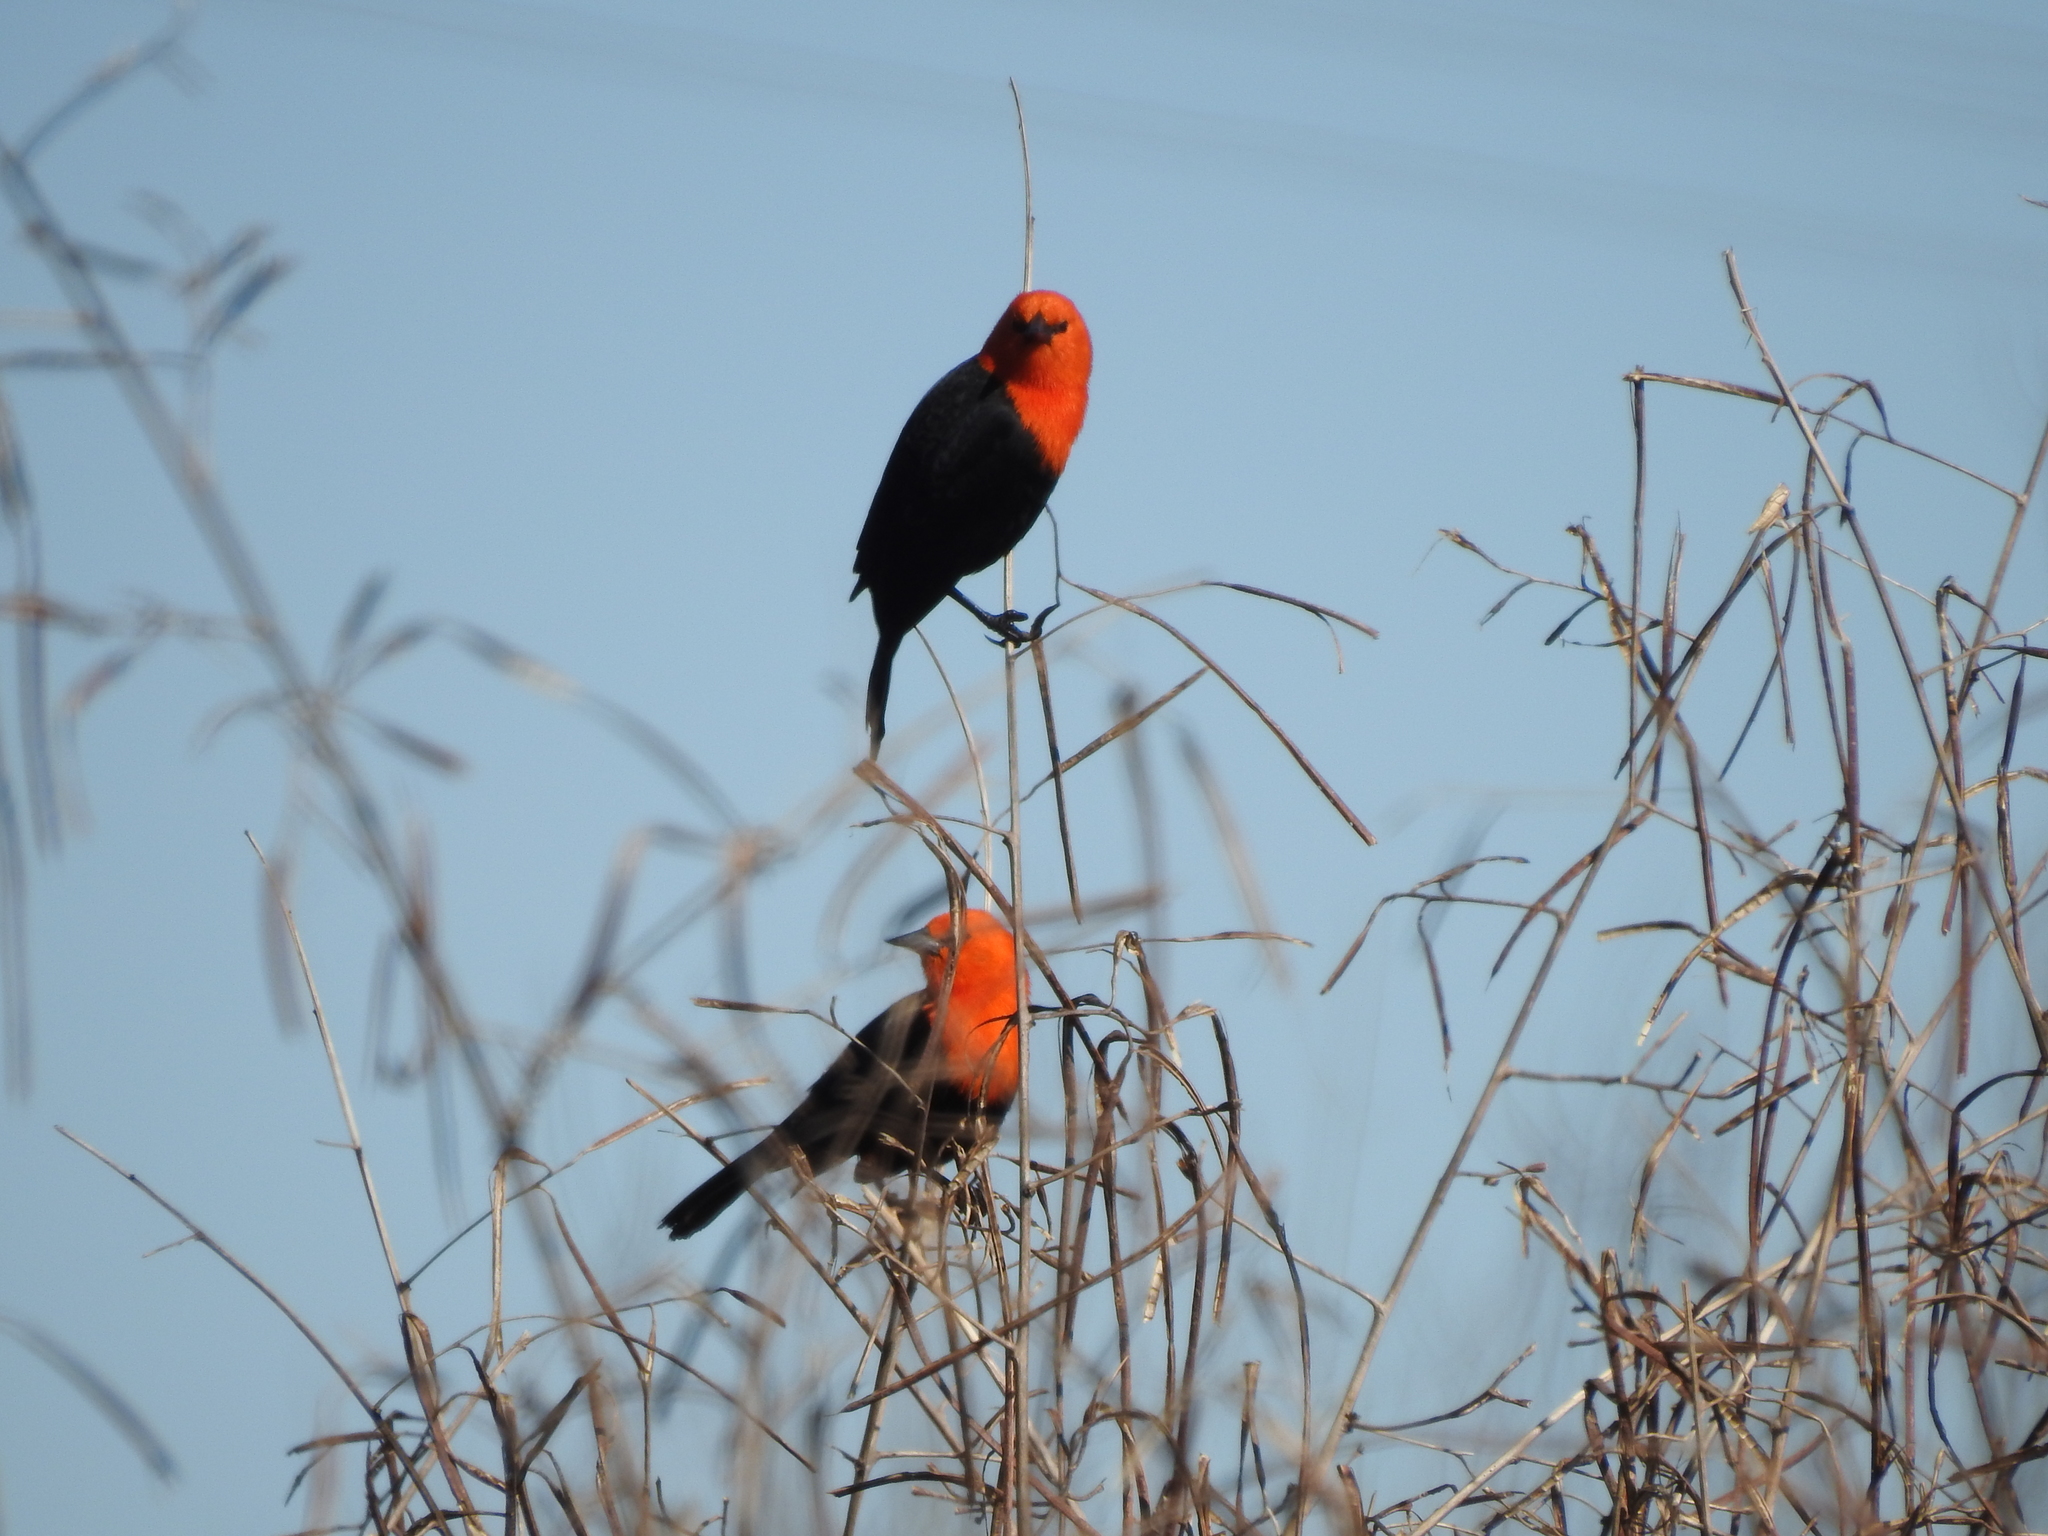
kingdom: Animalia
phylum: Chordata
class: Aves
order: Passeriformes
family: Icteridae
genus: Amblyramphus
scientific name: Amblyramphus holosericeus
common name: Scarlet-headed blackbird
